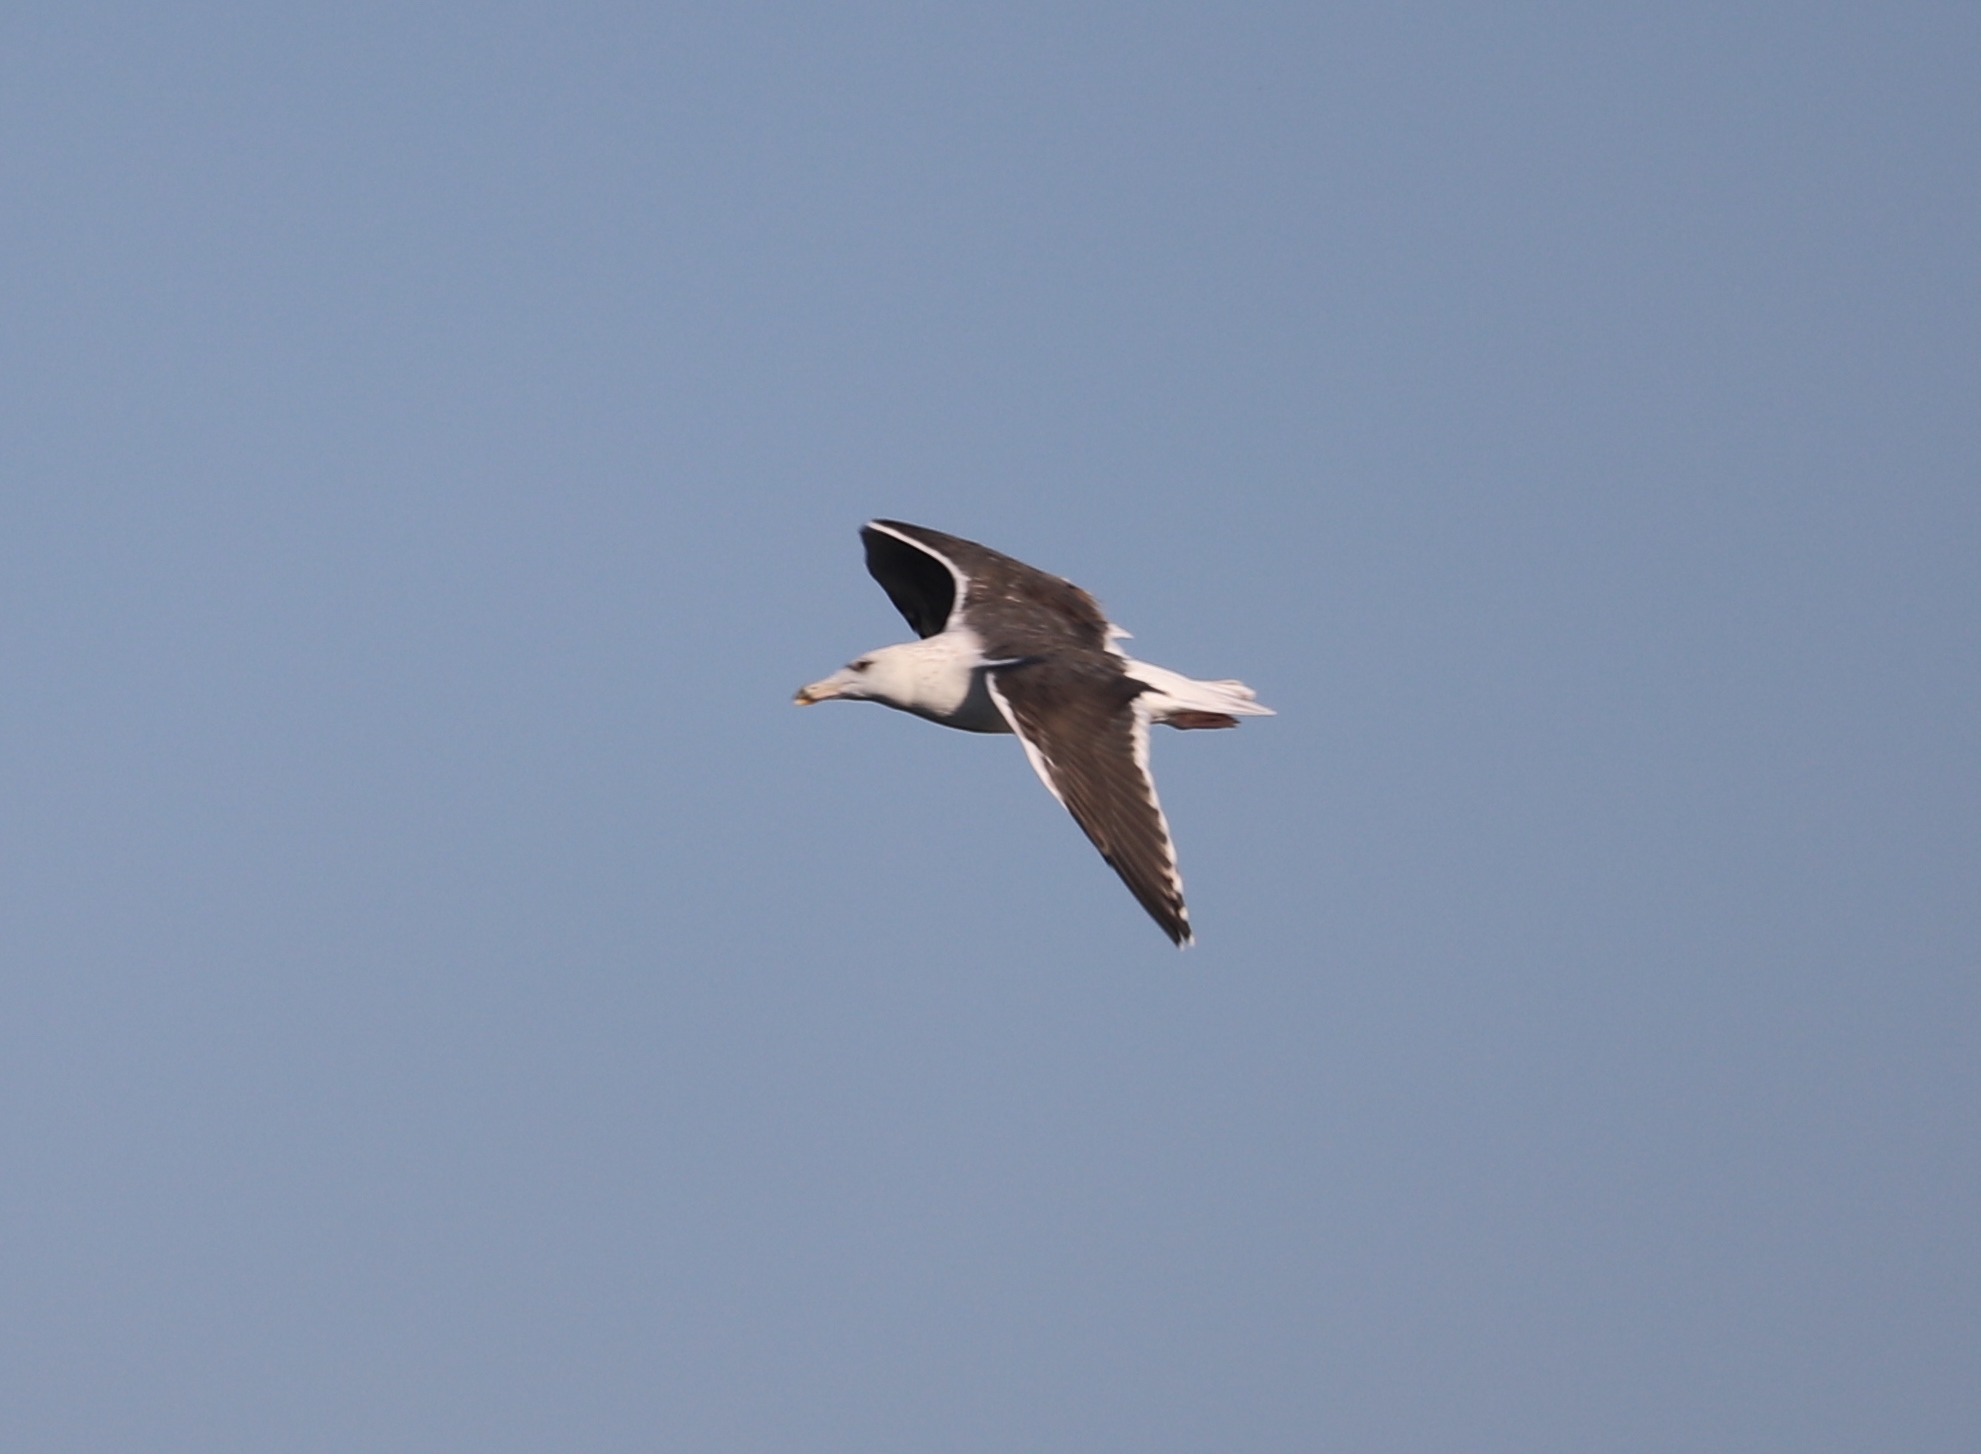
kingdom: Animalia
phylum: Chordata
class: Aves
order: Charadriiformes
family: Laridae
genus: Larus
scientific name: Larus marinus
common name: Great black-backed gull
